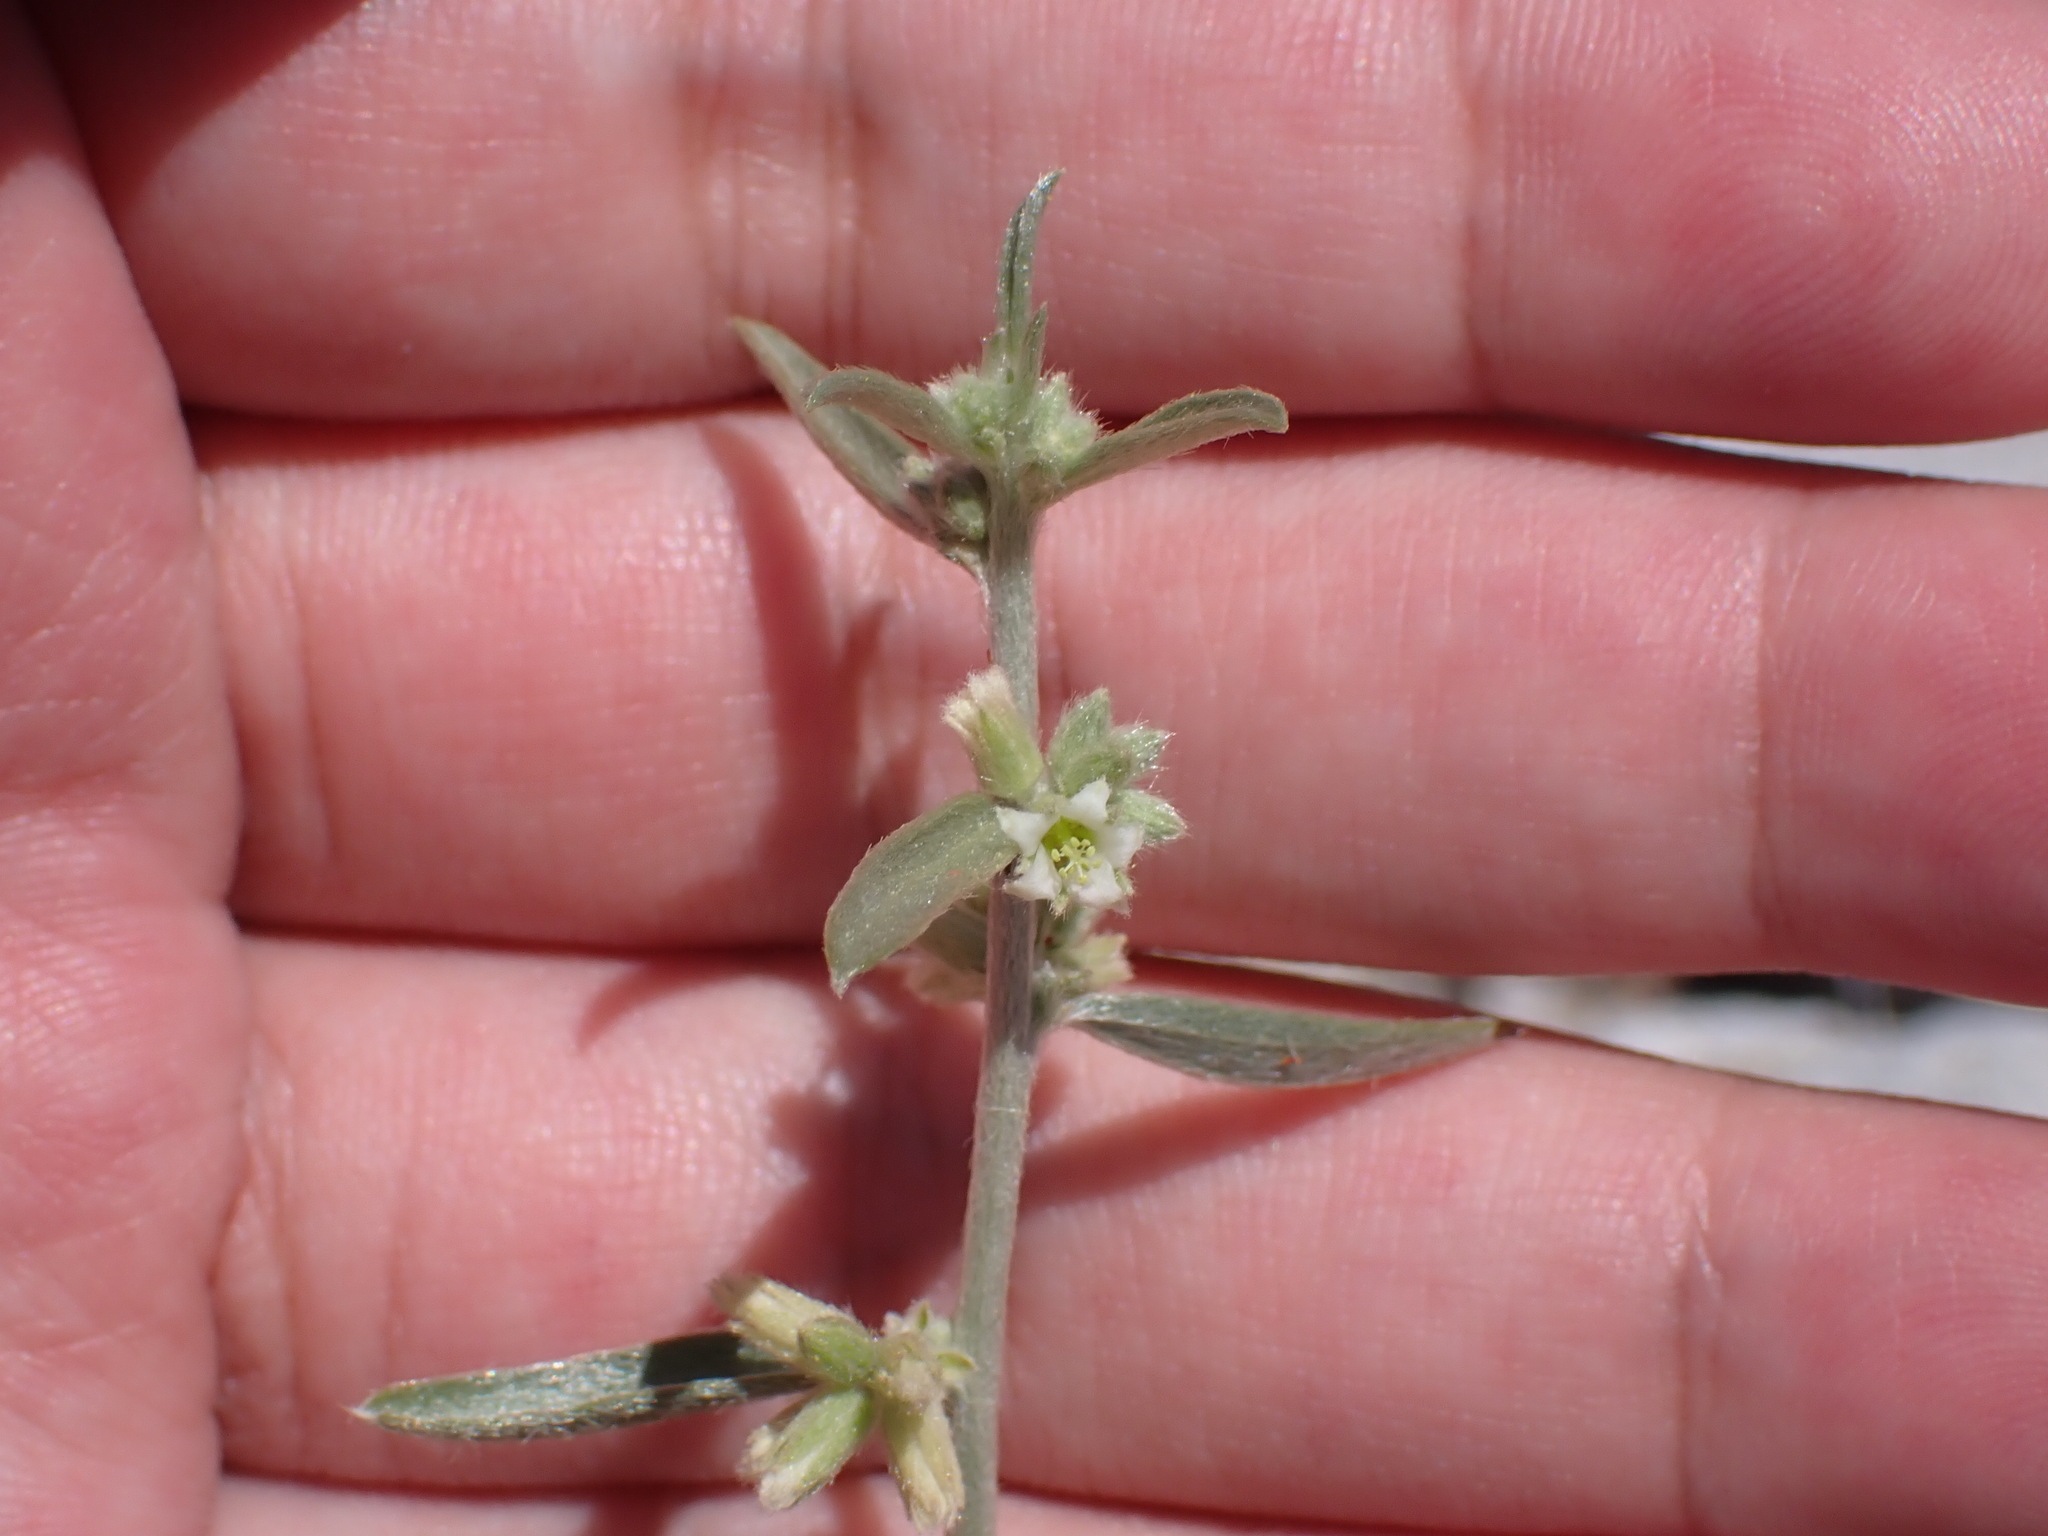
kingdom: Plantae
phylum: Tracheophyta
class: Magnoliopsida
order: Malpighiales
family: Euphorbiaceae
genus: Ditaxis
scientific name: Ditaxis lanceolata
